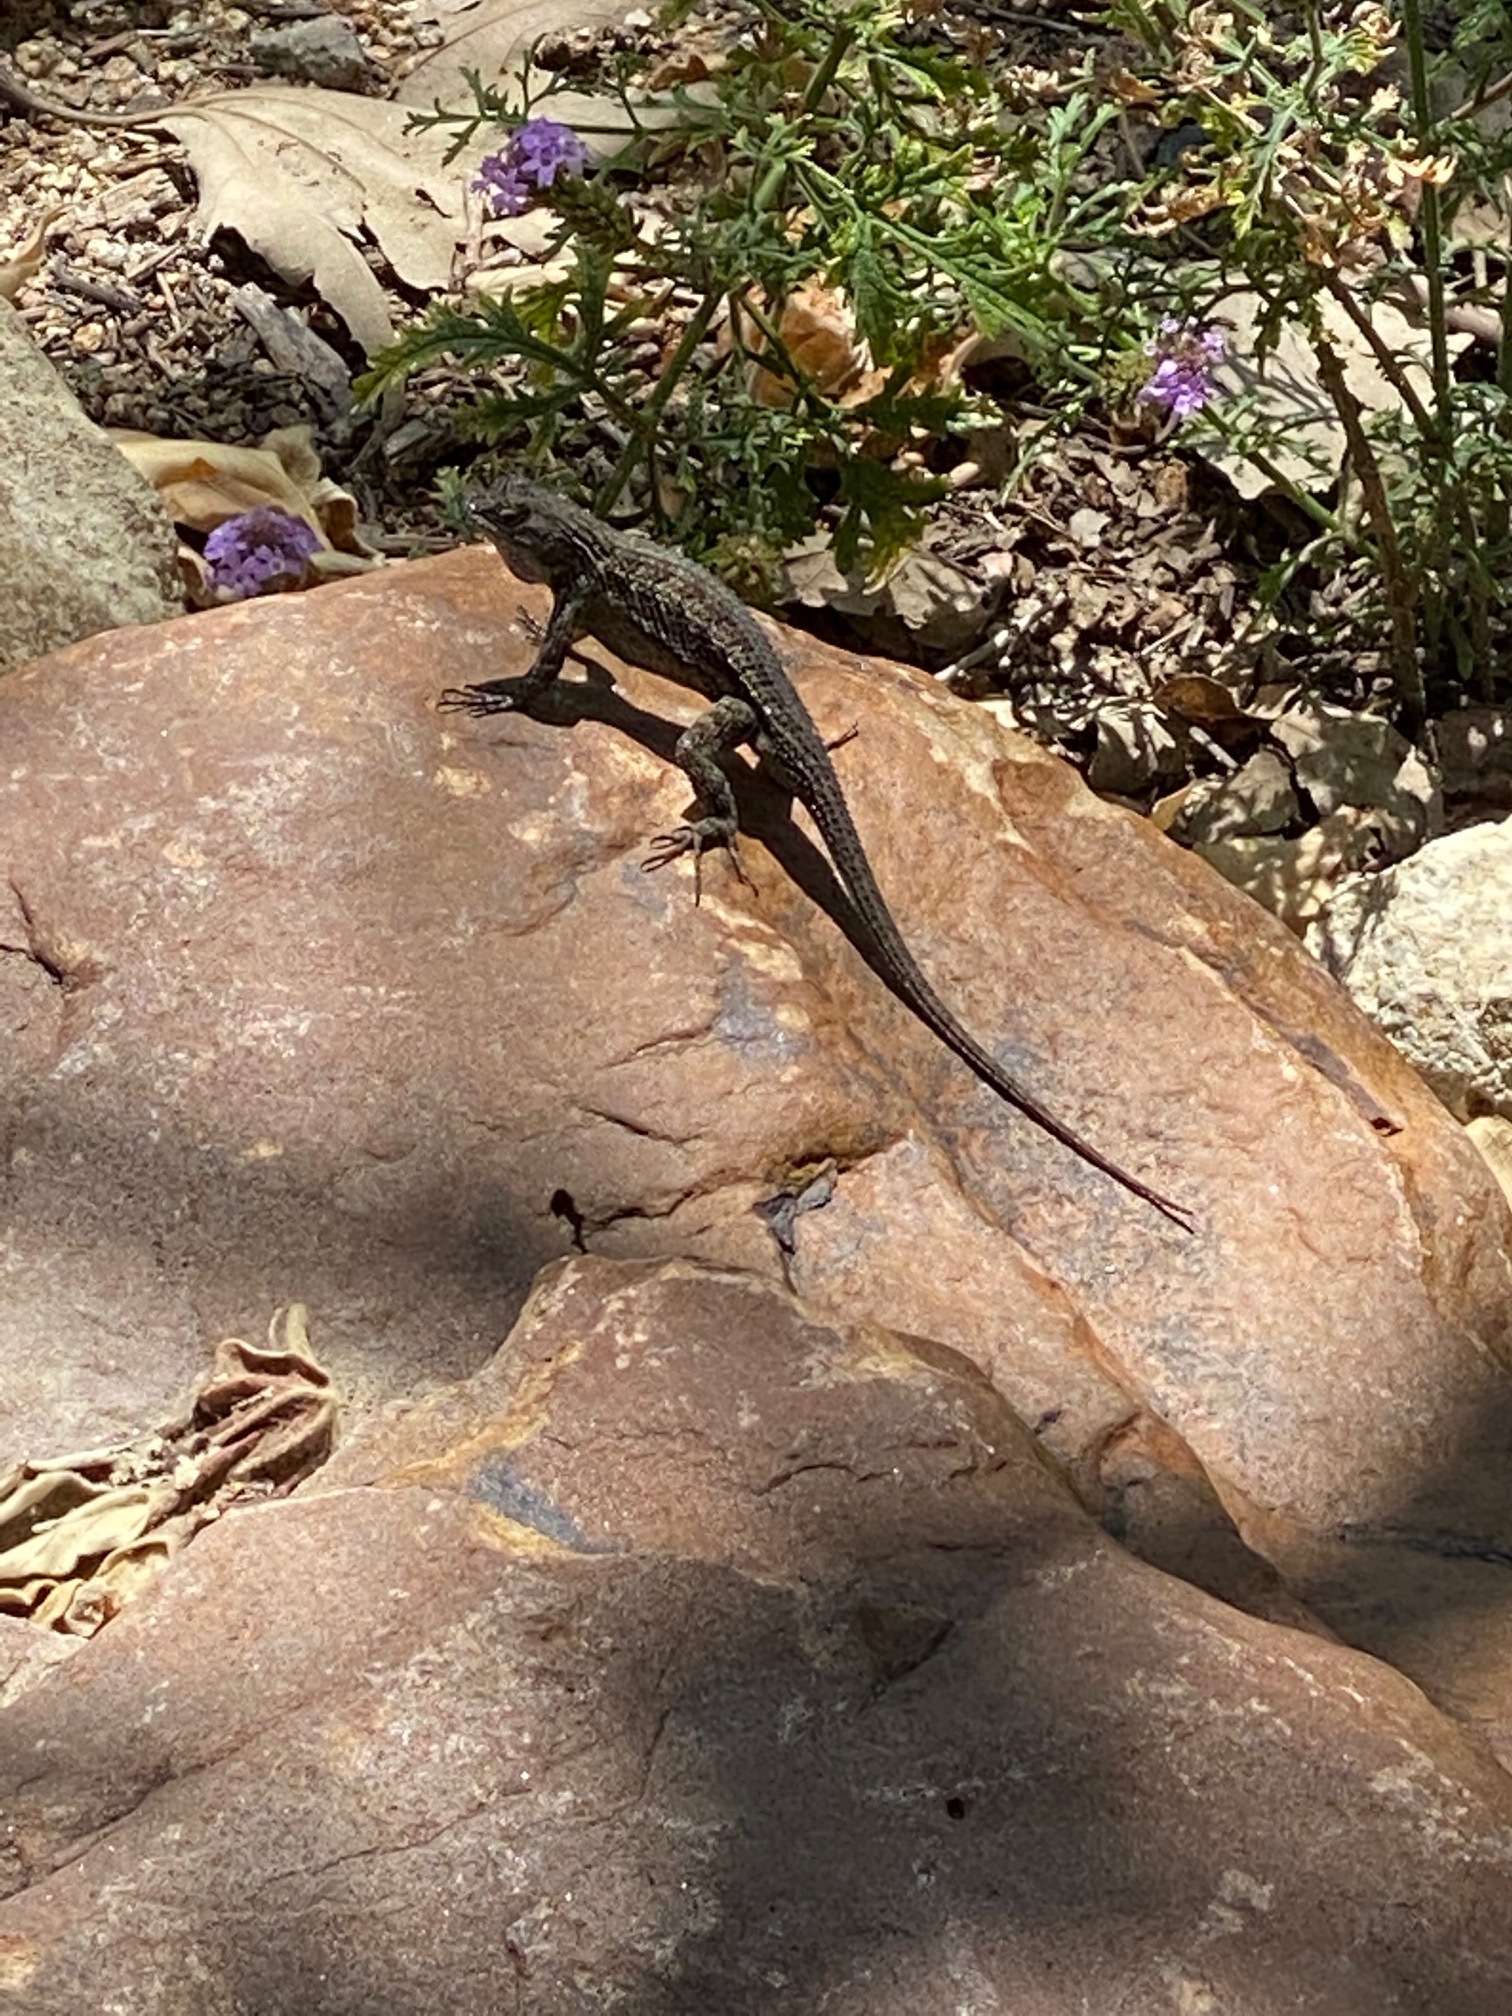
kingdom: Animalia
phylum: Chordata
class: Squamata
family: Phrynosomatidae
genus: Sceloporus
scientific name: Sceloporus occidentalis
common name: Western fence lizard
